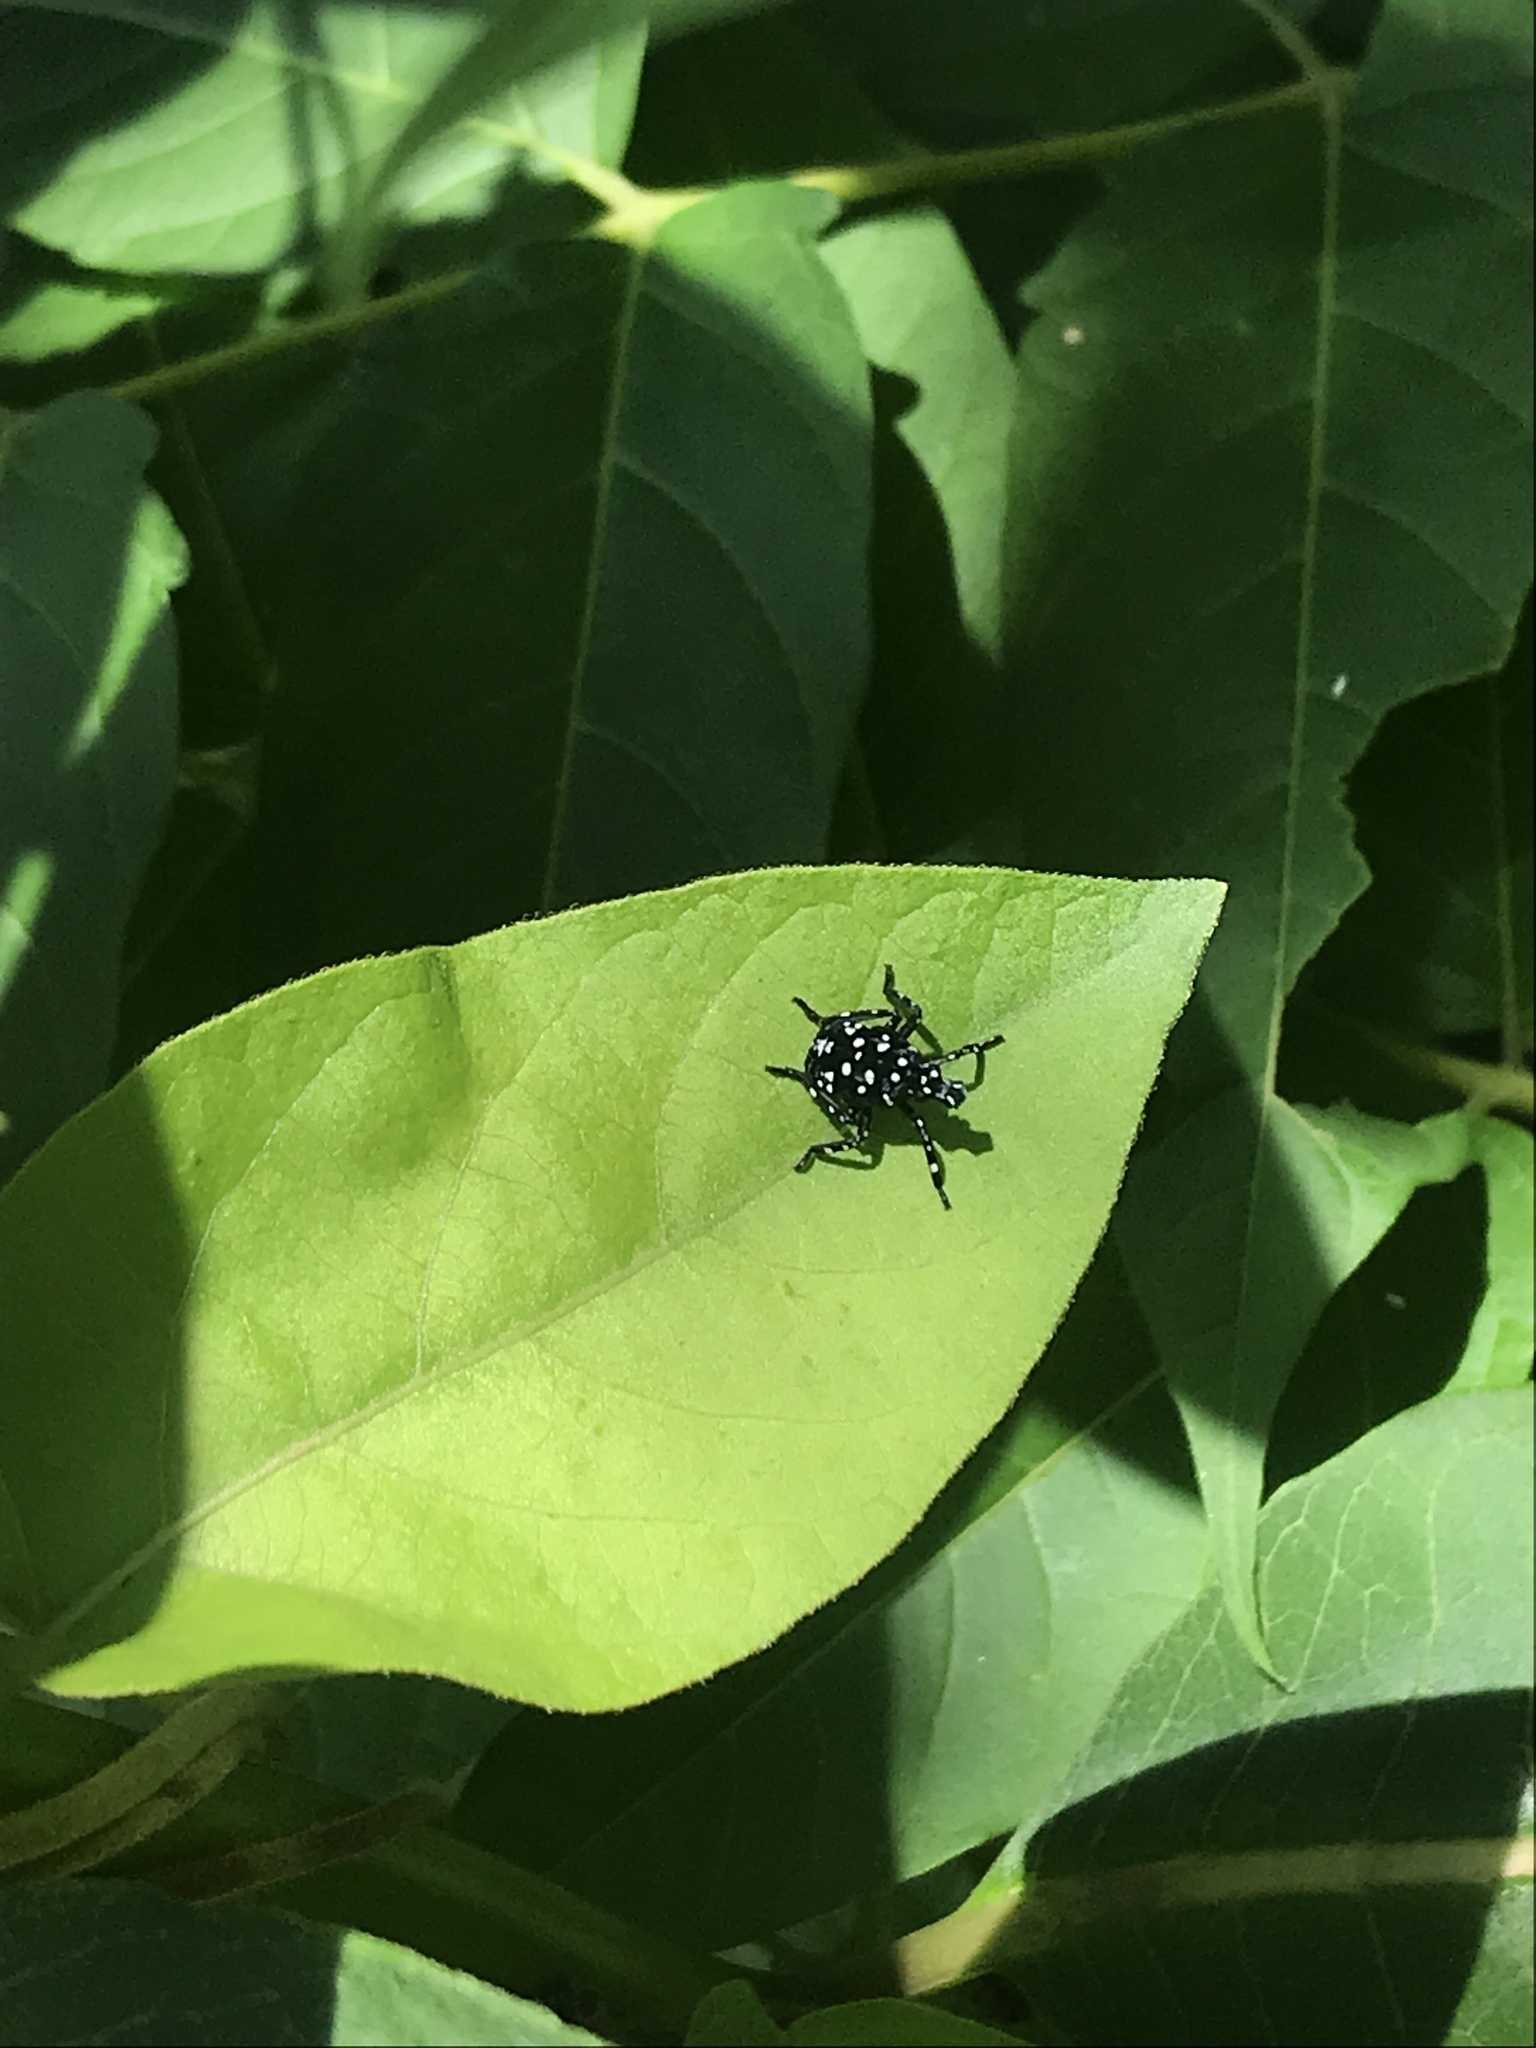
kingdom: Animalia
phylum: Arthropoda
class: Insecta
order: Hemiptera
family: Fulgoridae
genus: Lycorma
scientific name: Lycorma delicatula
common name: Spotted lanternfly
